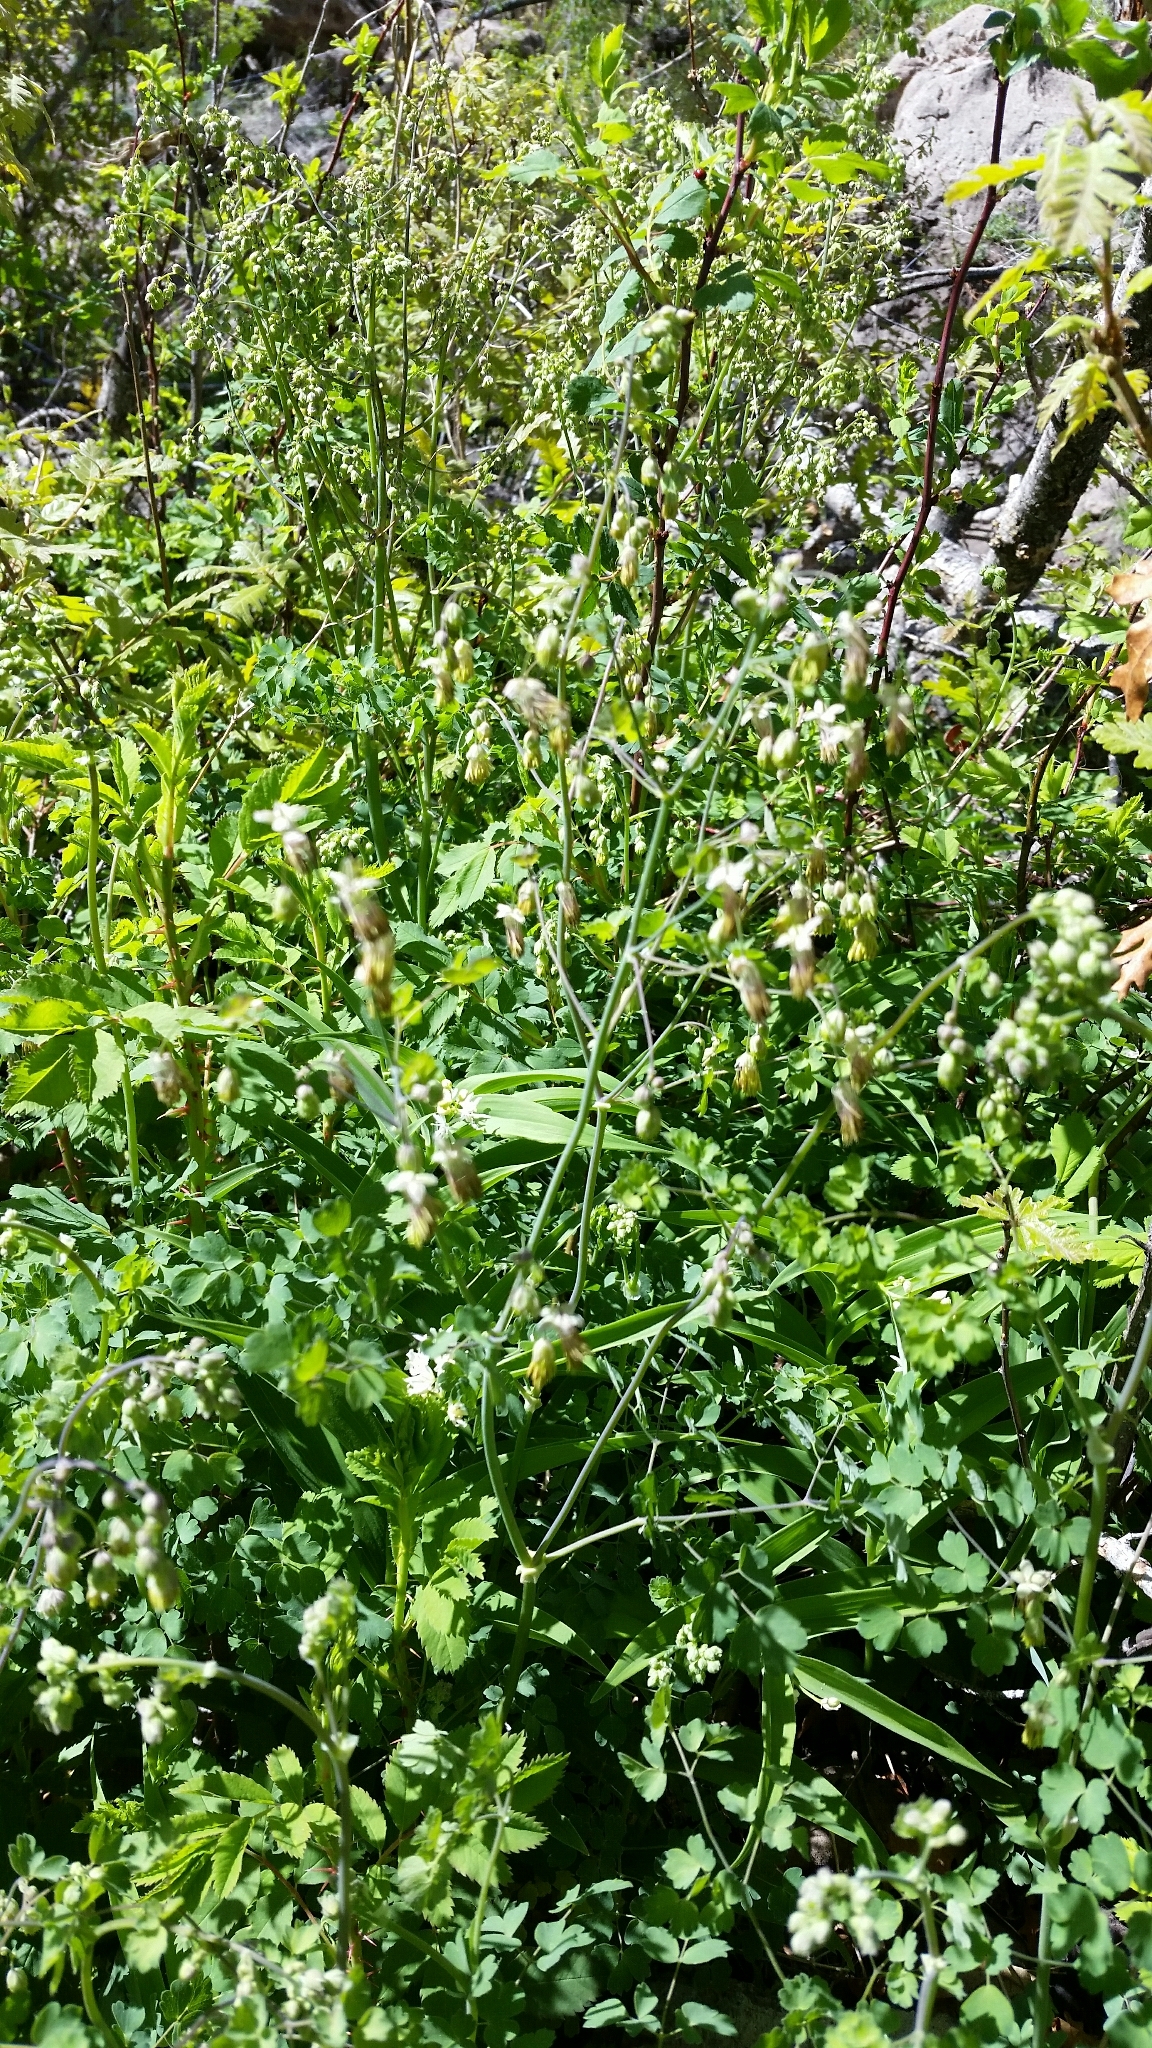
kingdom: Plantae
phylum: Tracheophyta
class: Magnoliopsida
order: Ranunculales
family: Ranunculaceae
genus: Thalictrum
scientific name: Thalictrum fendleri
